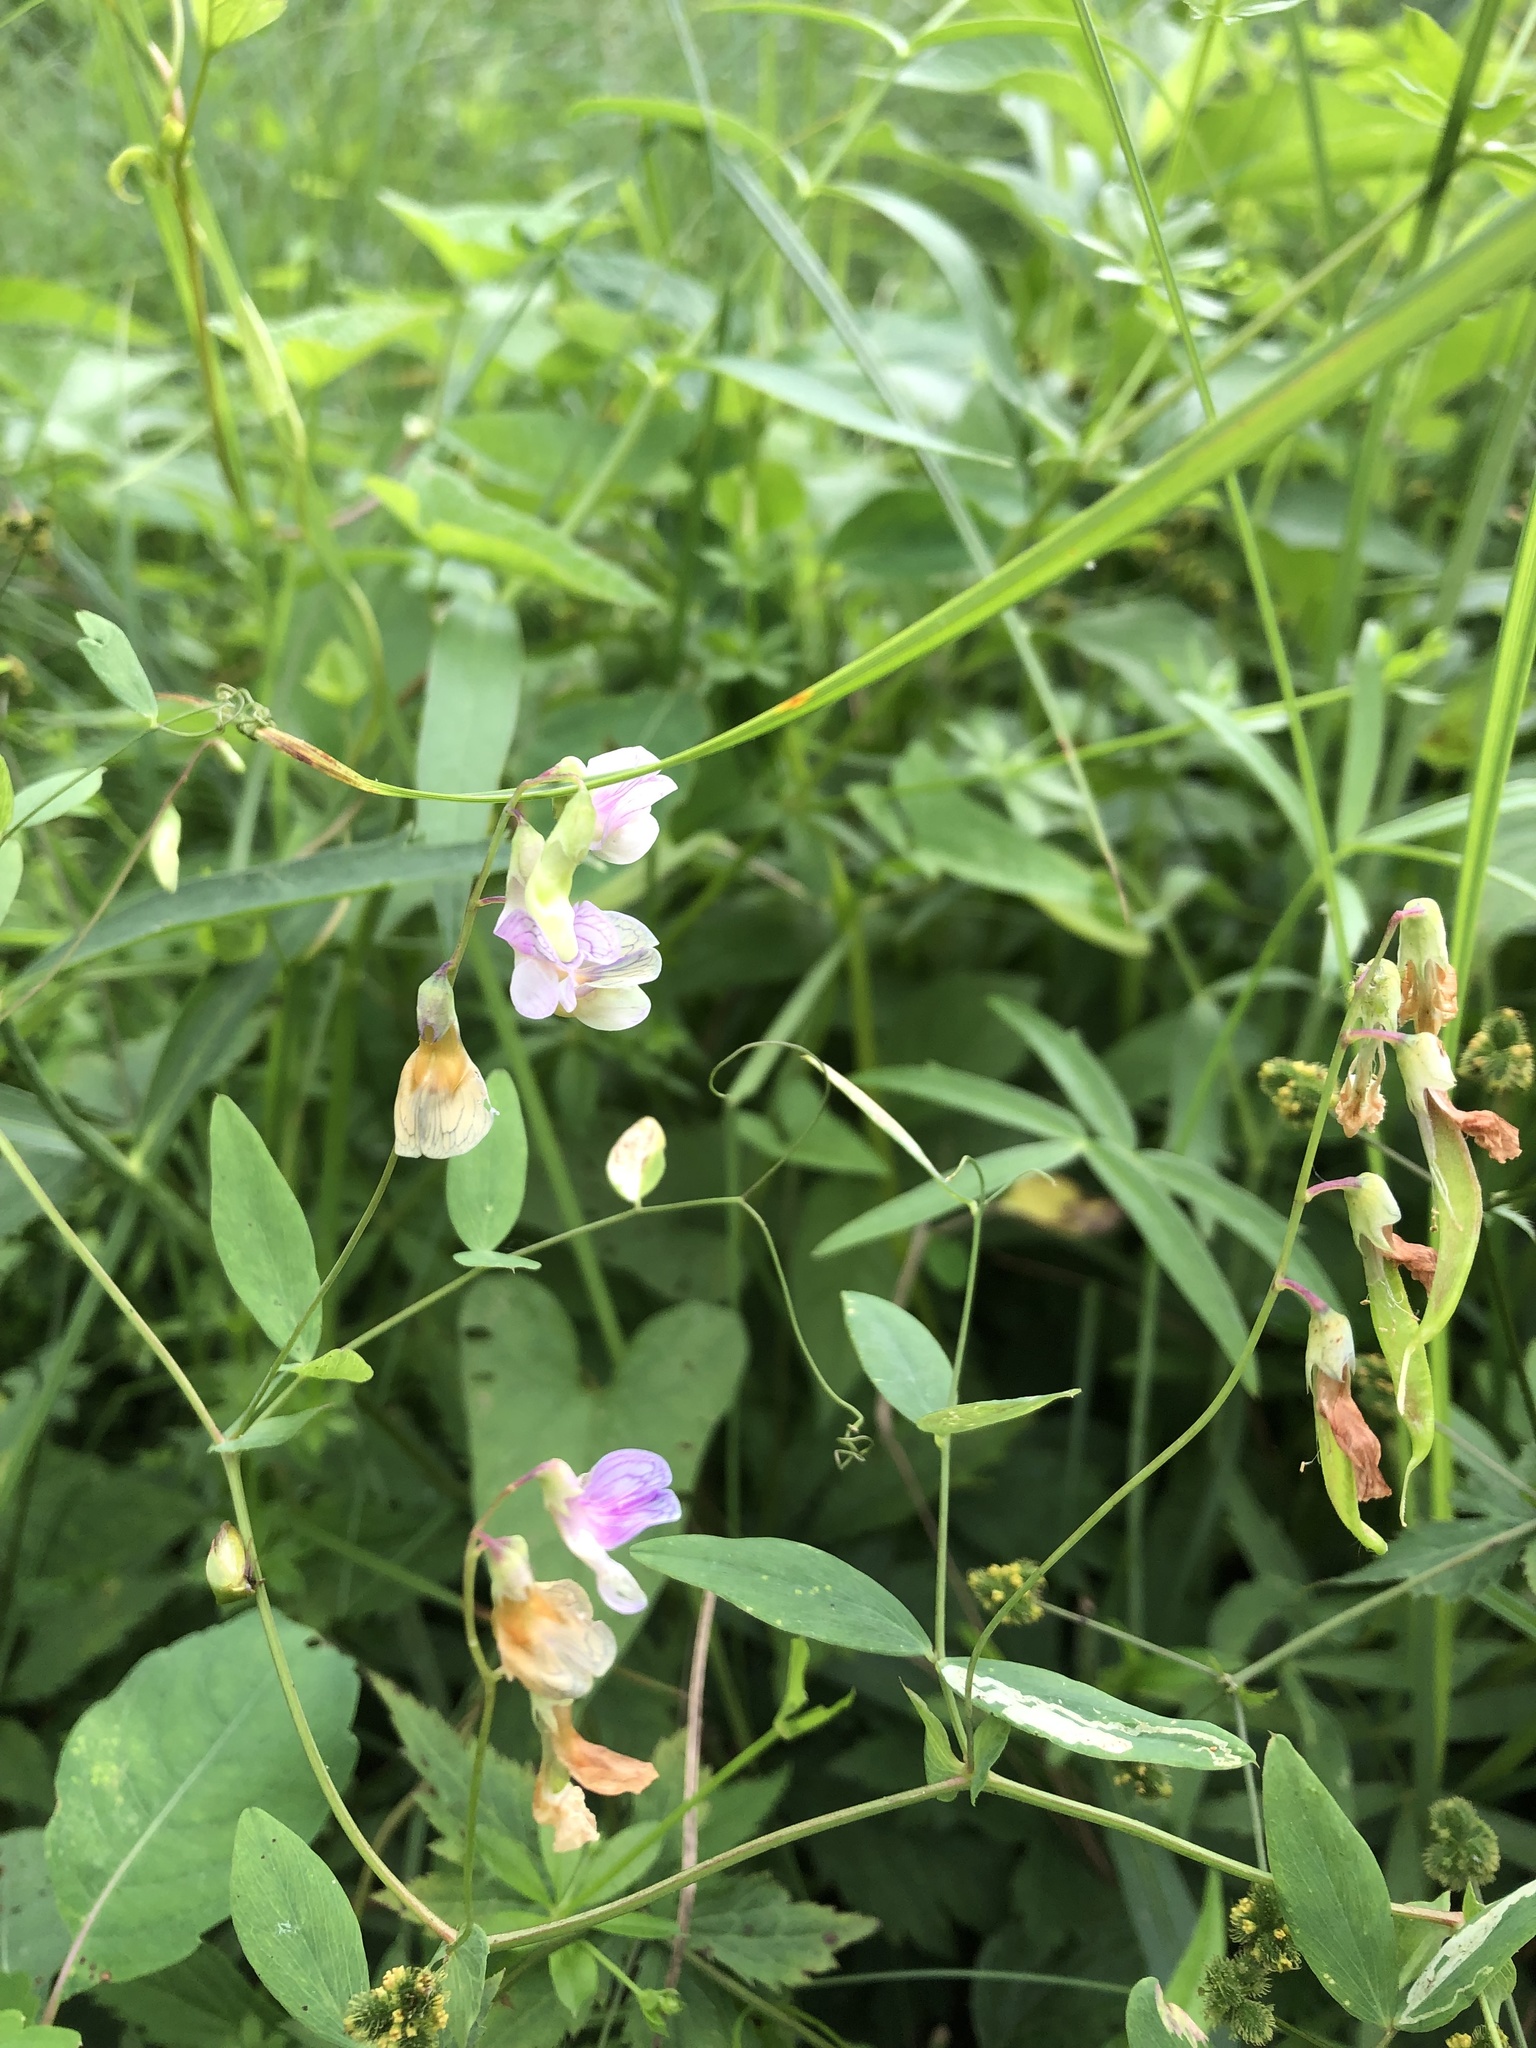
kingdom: Plantae
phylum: Tracheophyta
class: Magnoliopsida
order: Fabales
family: Fabaceae
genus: Lathyrus
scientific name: Lathyrus palustris
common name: Marsh pea
